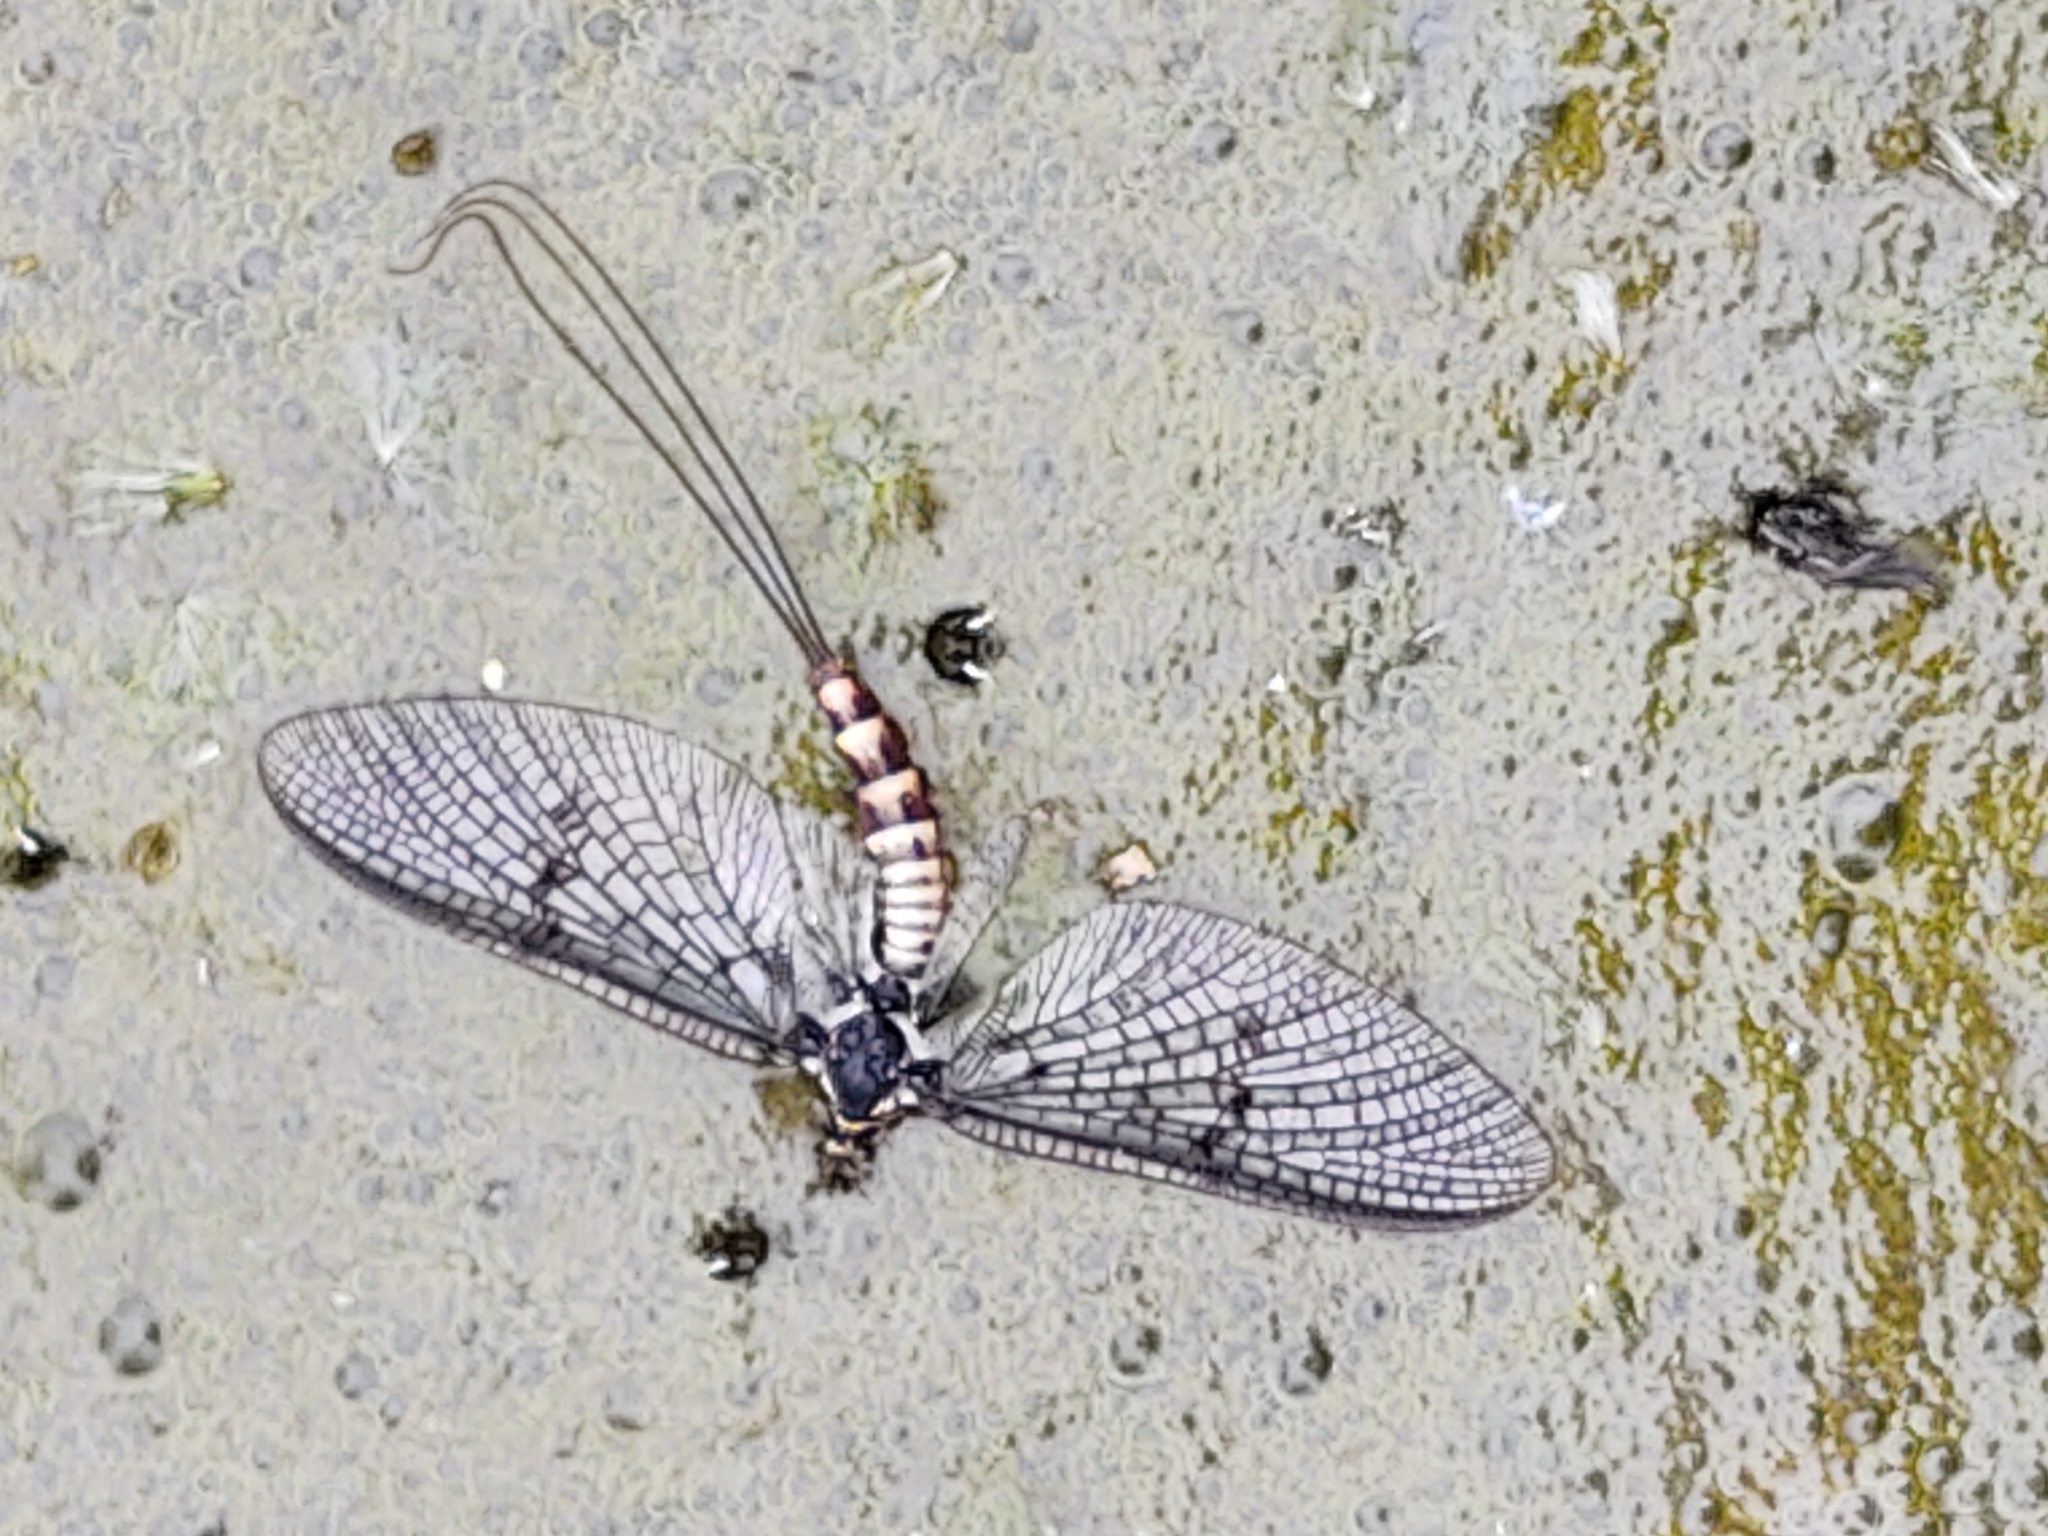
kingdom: Animalia
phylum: Arthropoda
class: Insecta
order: Ephemeroptera
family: Ephemeridae
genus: Ephemera
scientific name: Ephemera danica
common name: Green dun
